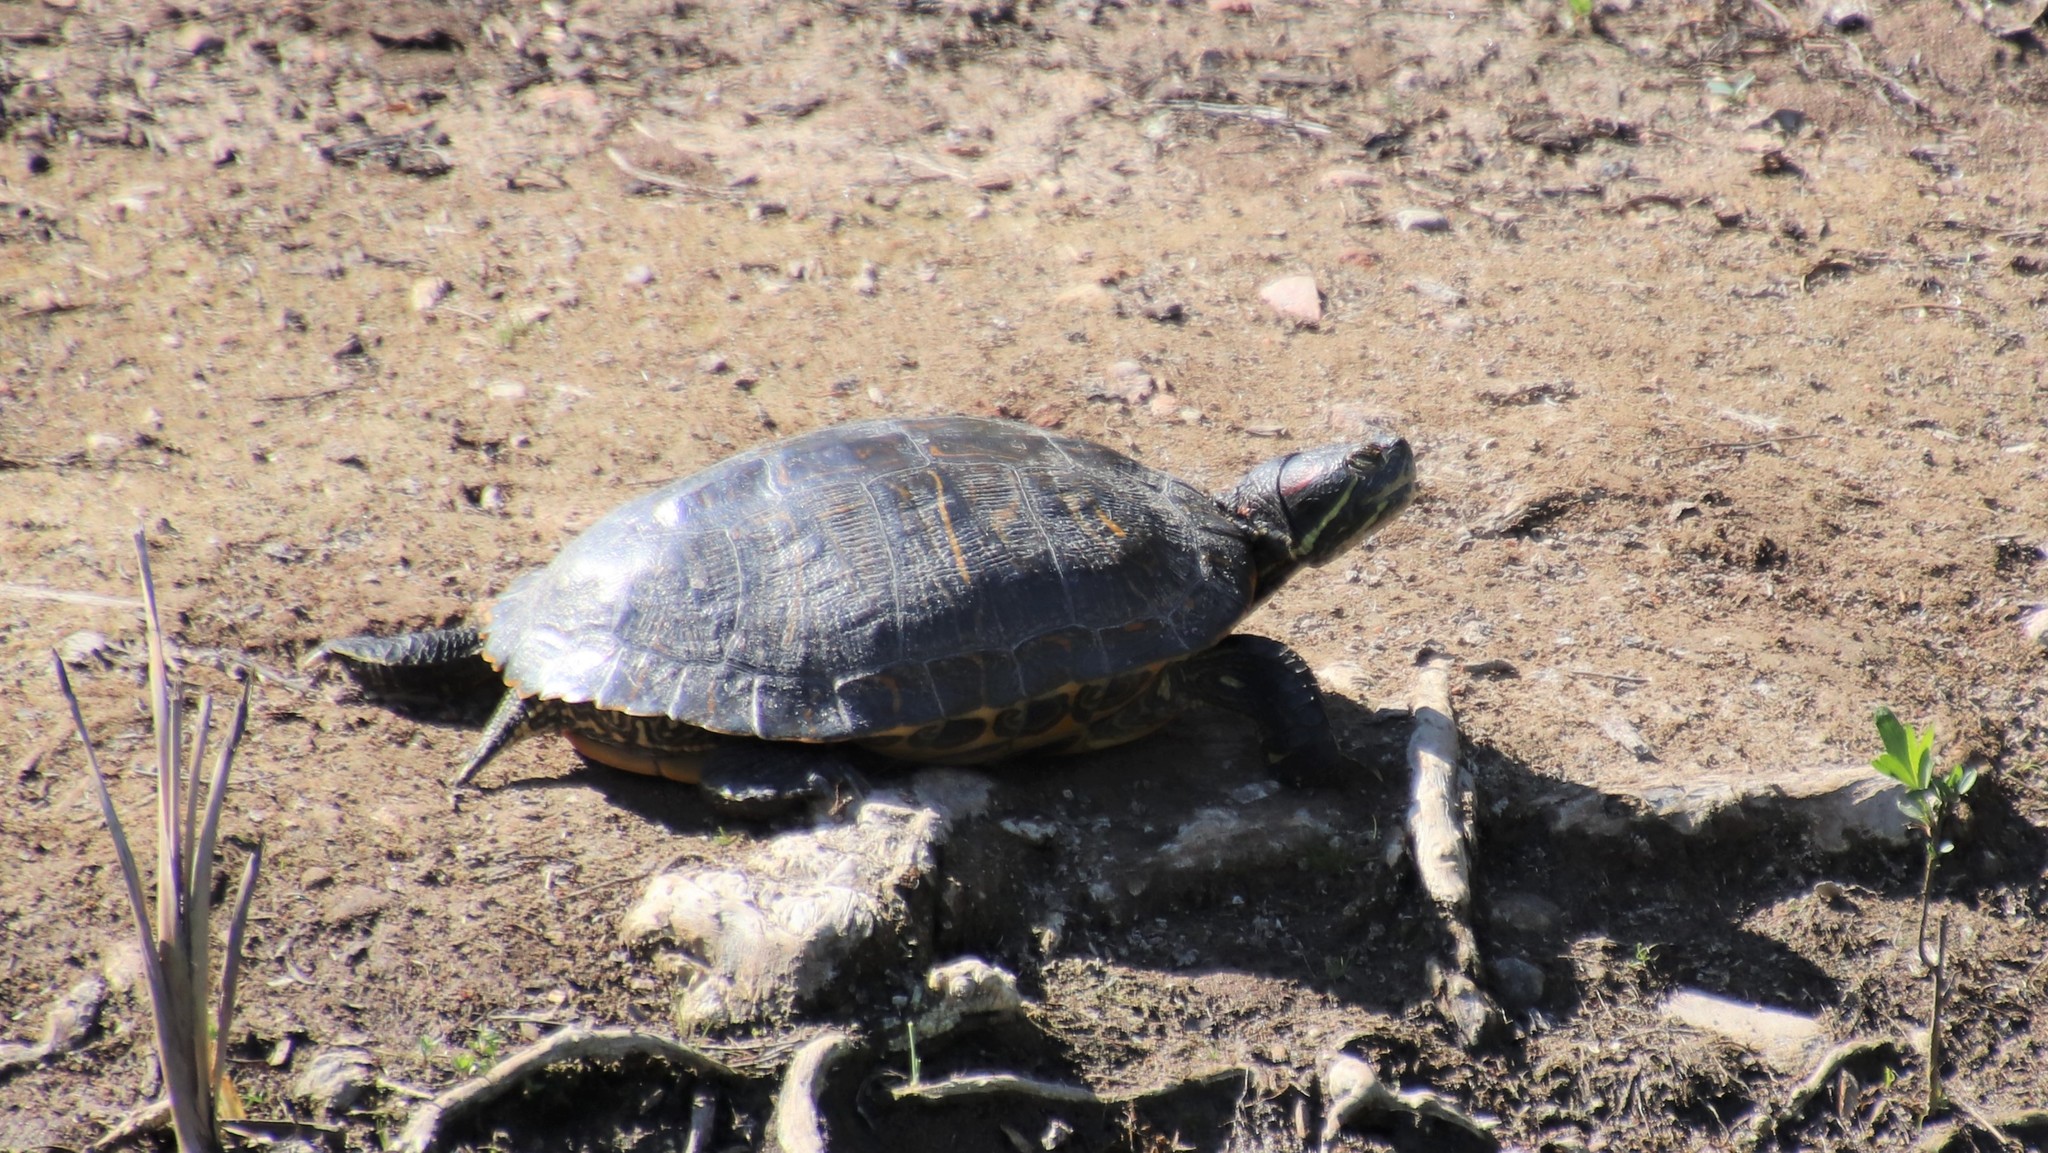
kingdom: Animalia
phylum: Chordata
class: Testudines
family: Emydidae
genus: Trachemys
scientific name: Trachemys scripta
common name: Slider
